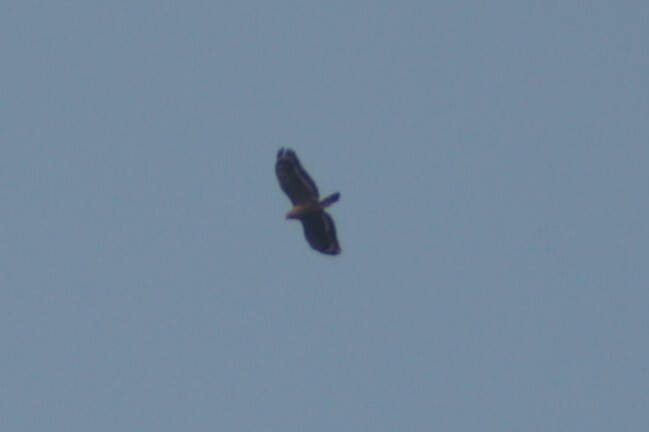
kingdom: Animalia
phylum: Chordata
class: Aves
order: Accipitriformes
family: Accipitridae
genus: Spilornis
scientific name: Spilornis cheela
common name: Crested serpent eagle
